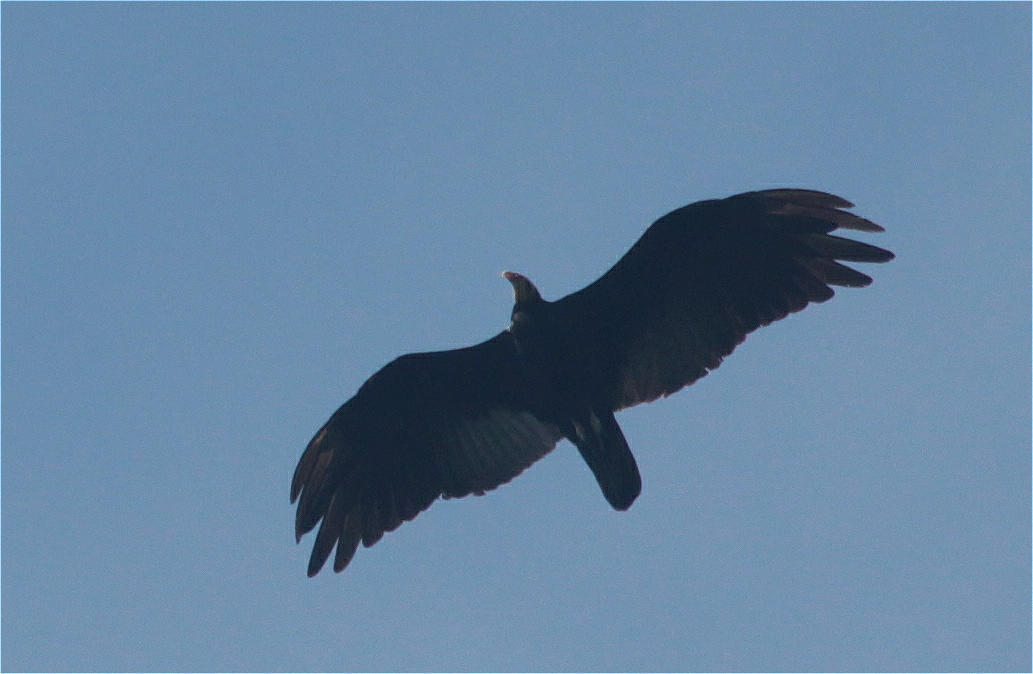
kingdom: Animalia
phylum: Chordata
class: Aves
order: Accipitriformes
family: Cathartidae
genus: Cathartes
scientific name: Cathartes melambrotus
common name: Greater yellow-headed vulture
